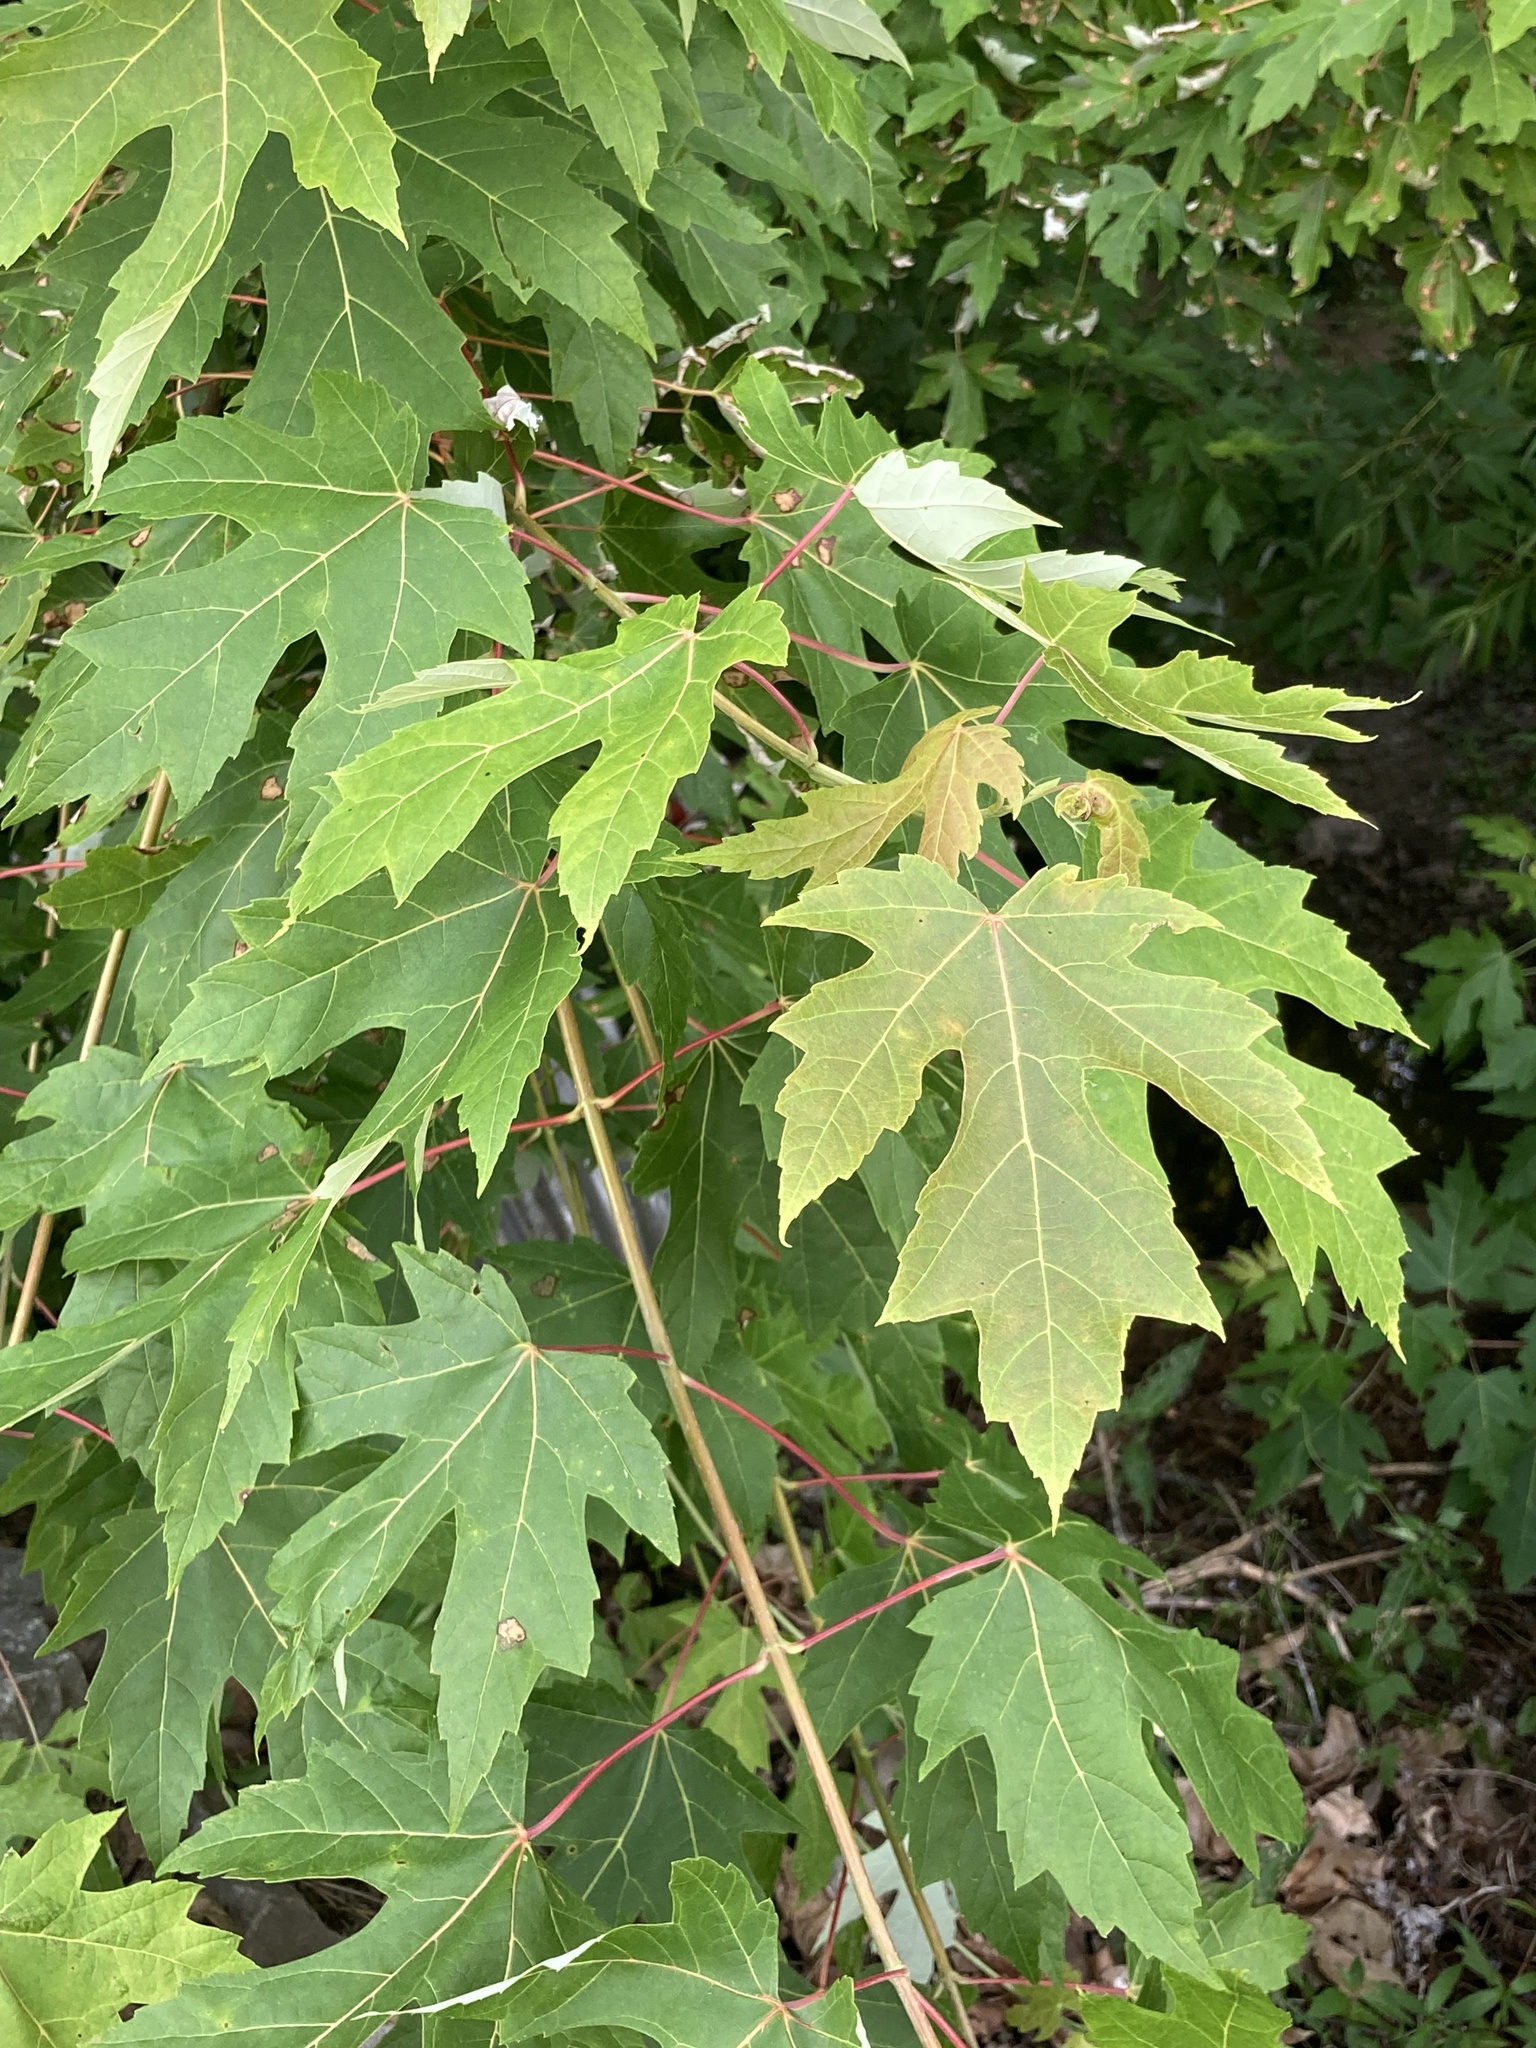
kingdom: Plantae
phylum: Tracheophyta
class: Magnoliopsida
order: Sapindales
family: Sapindaceae
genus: Acer
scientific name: Acer saccharinum
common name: Silver maple
